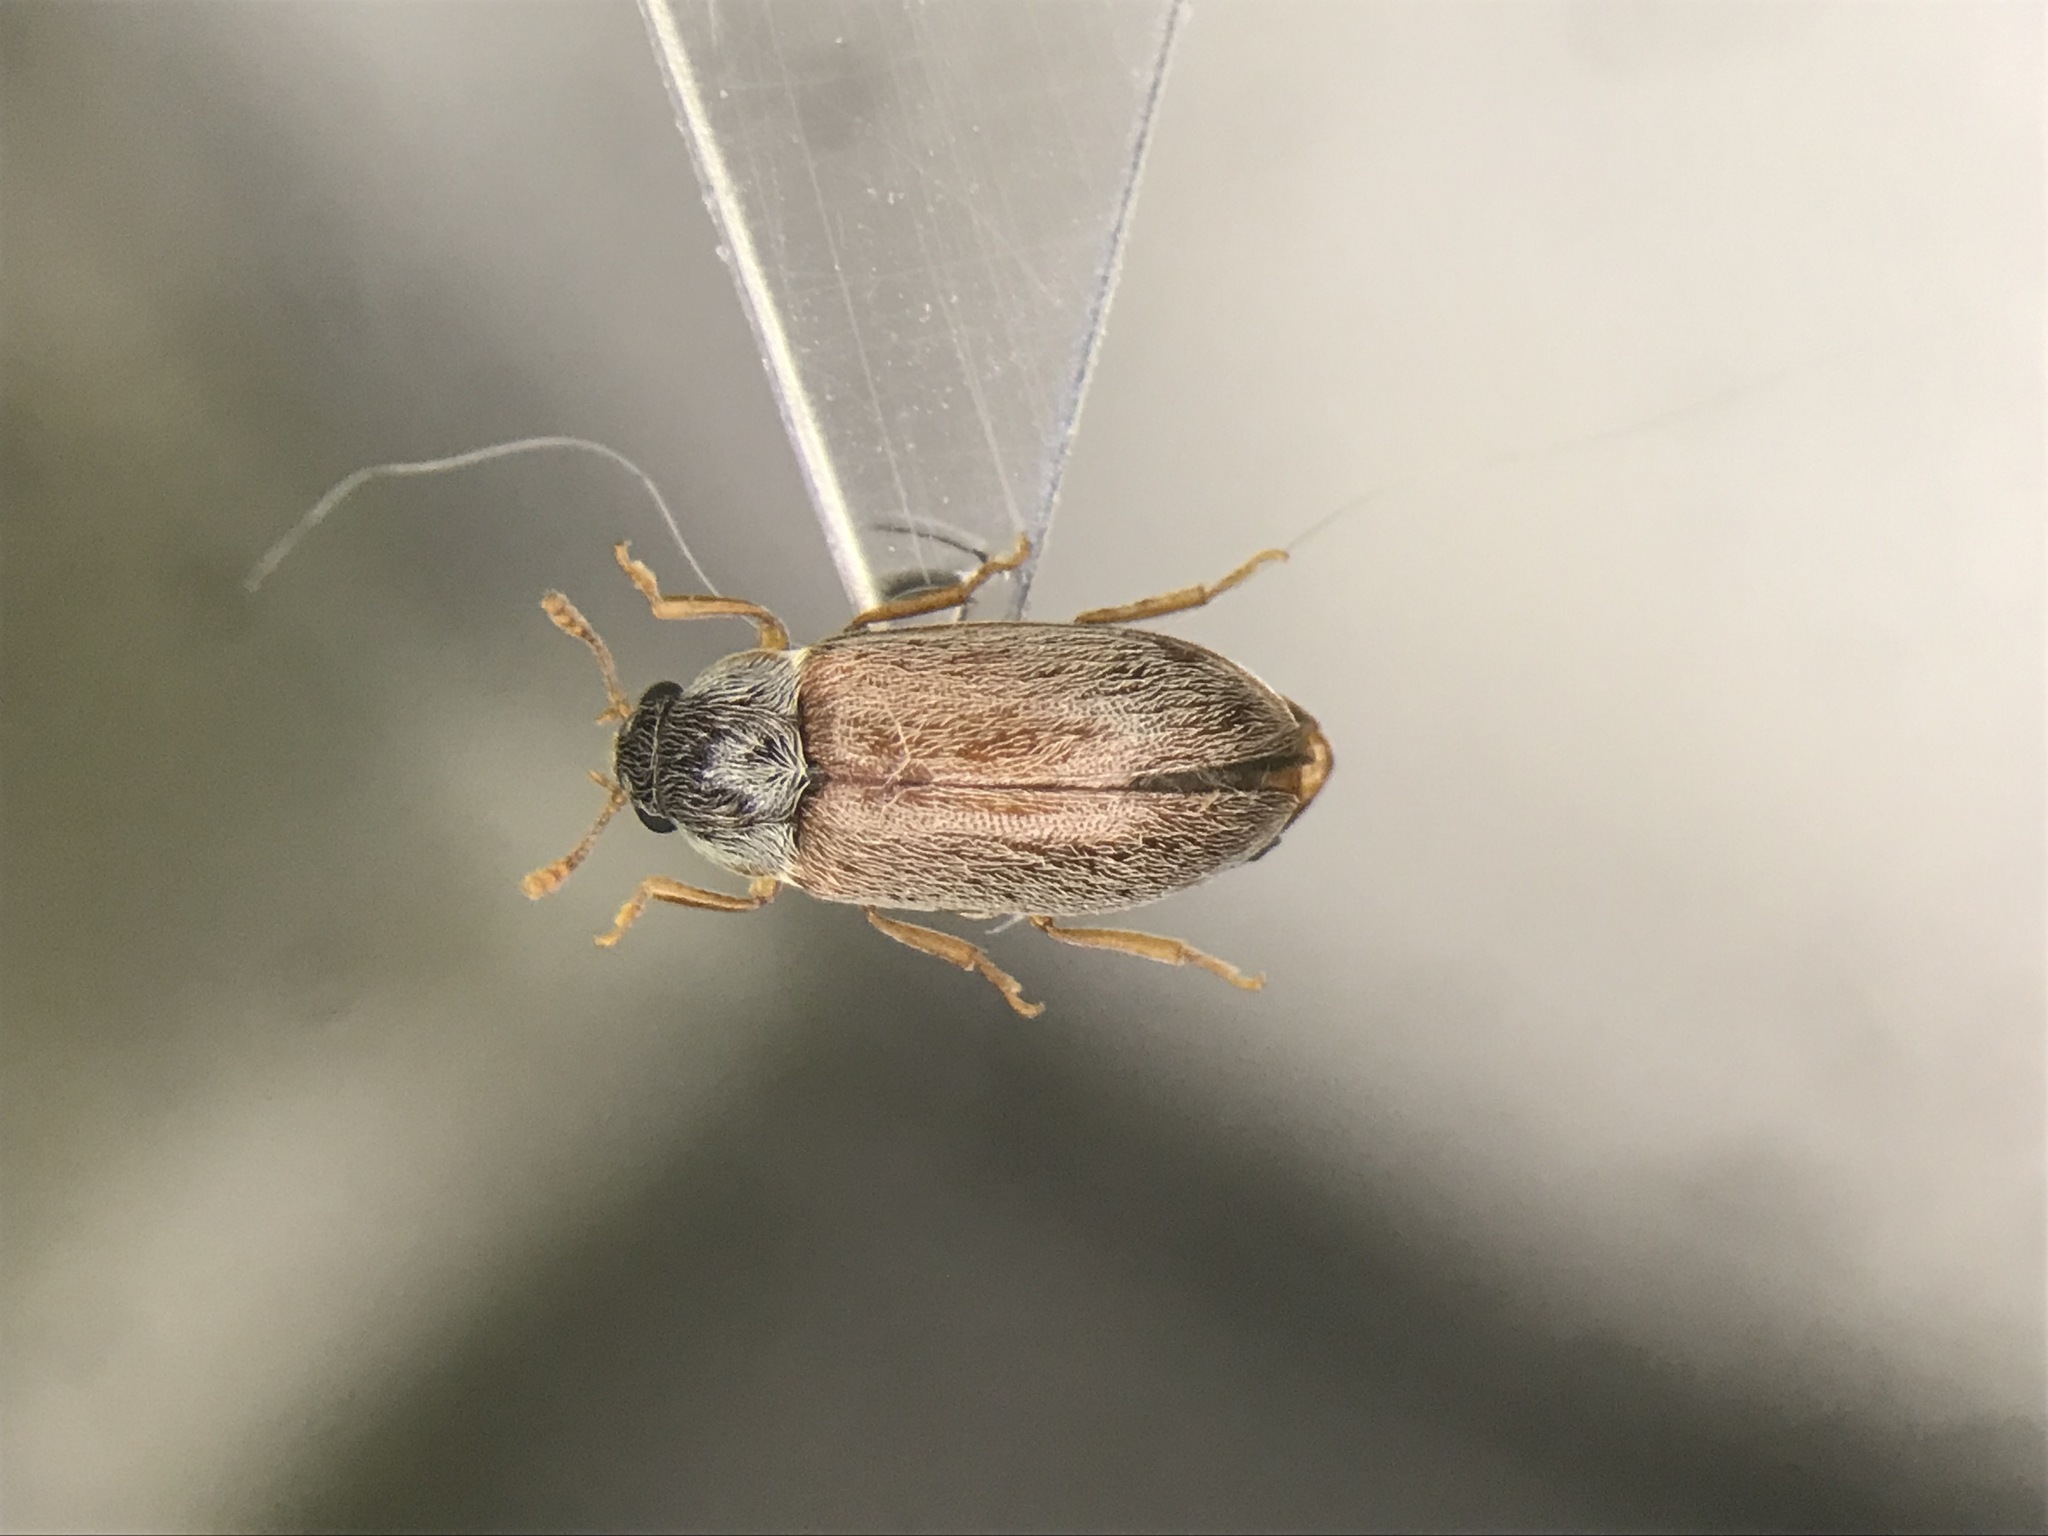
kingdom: Animalia
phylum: Arthropoda
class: Insecta
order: Coleoptera
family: Byturidae
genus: Byturus
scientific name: Byturus unicolor
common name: Raspberry fruitworm beetle
